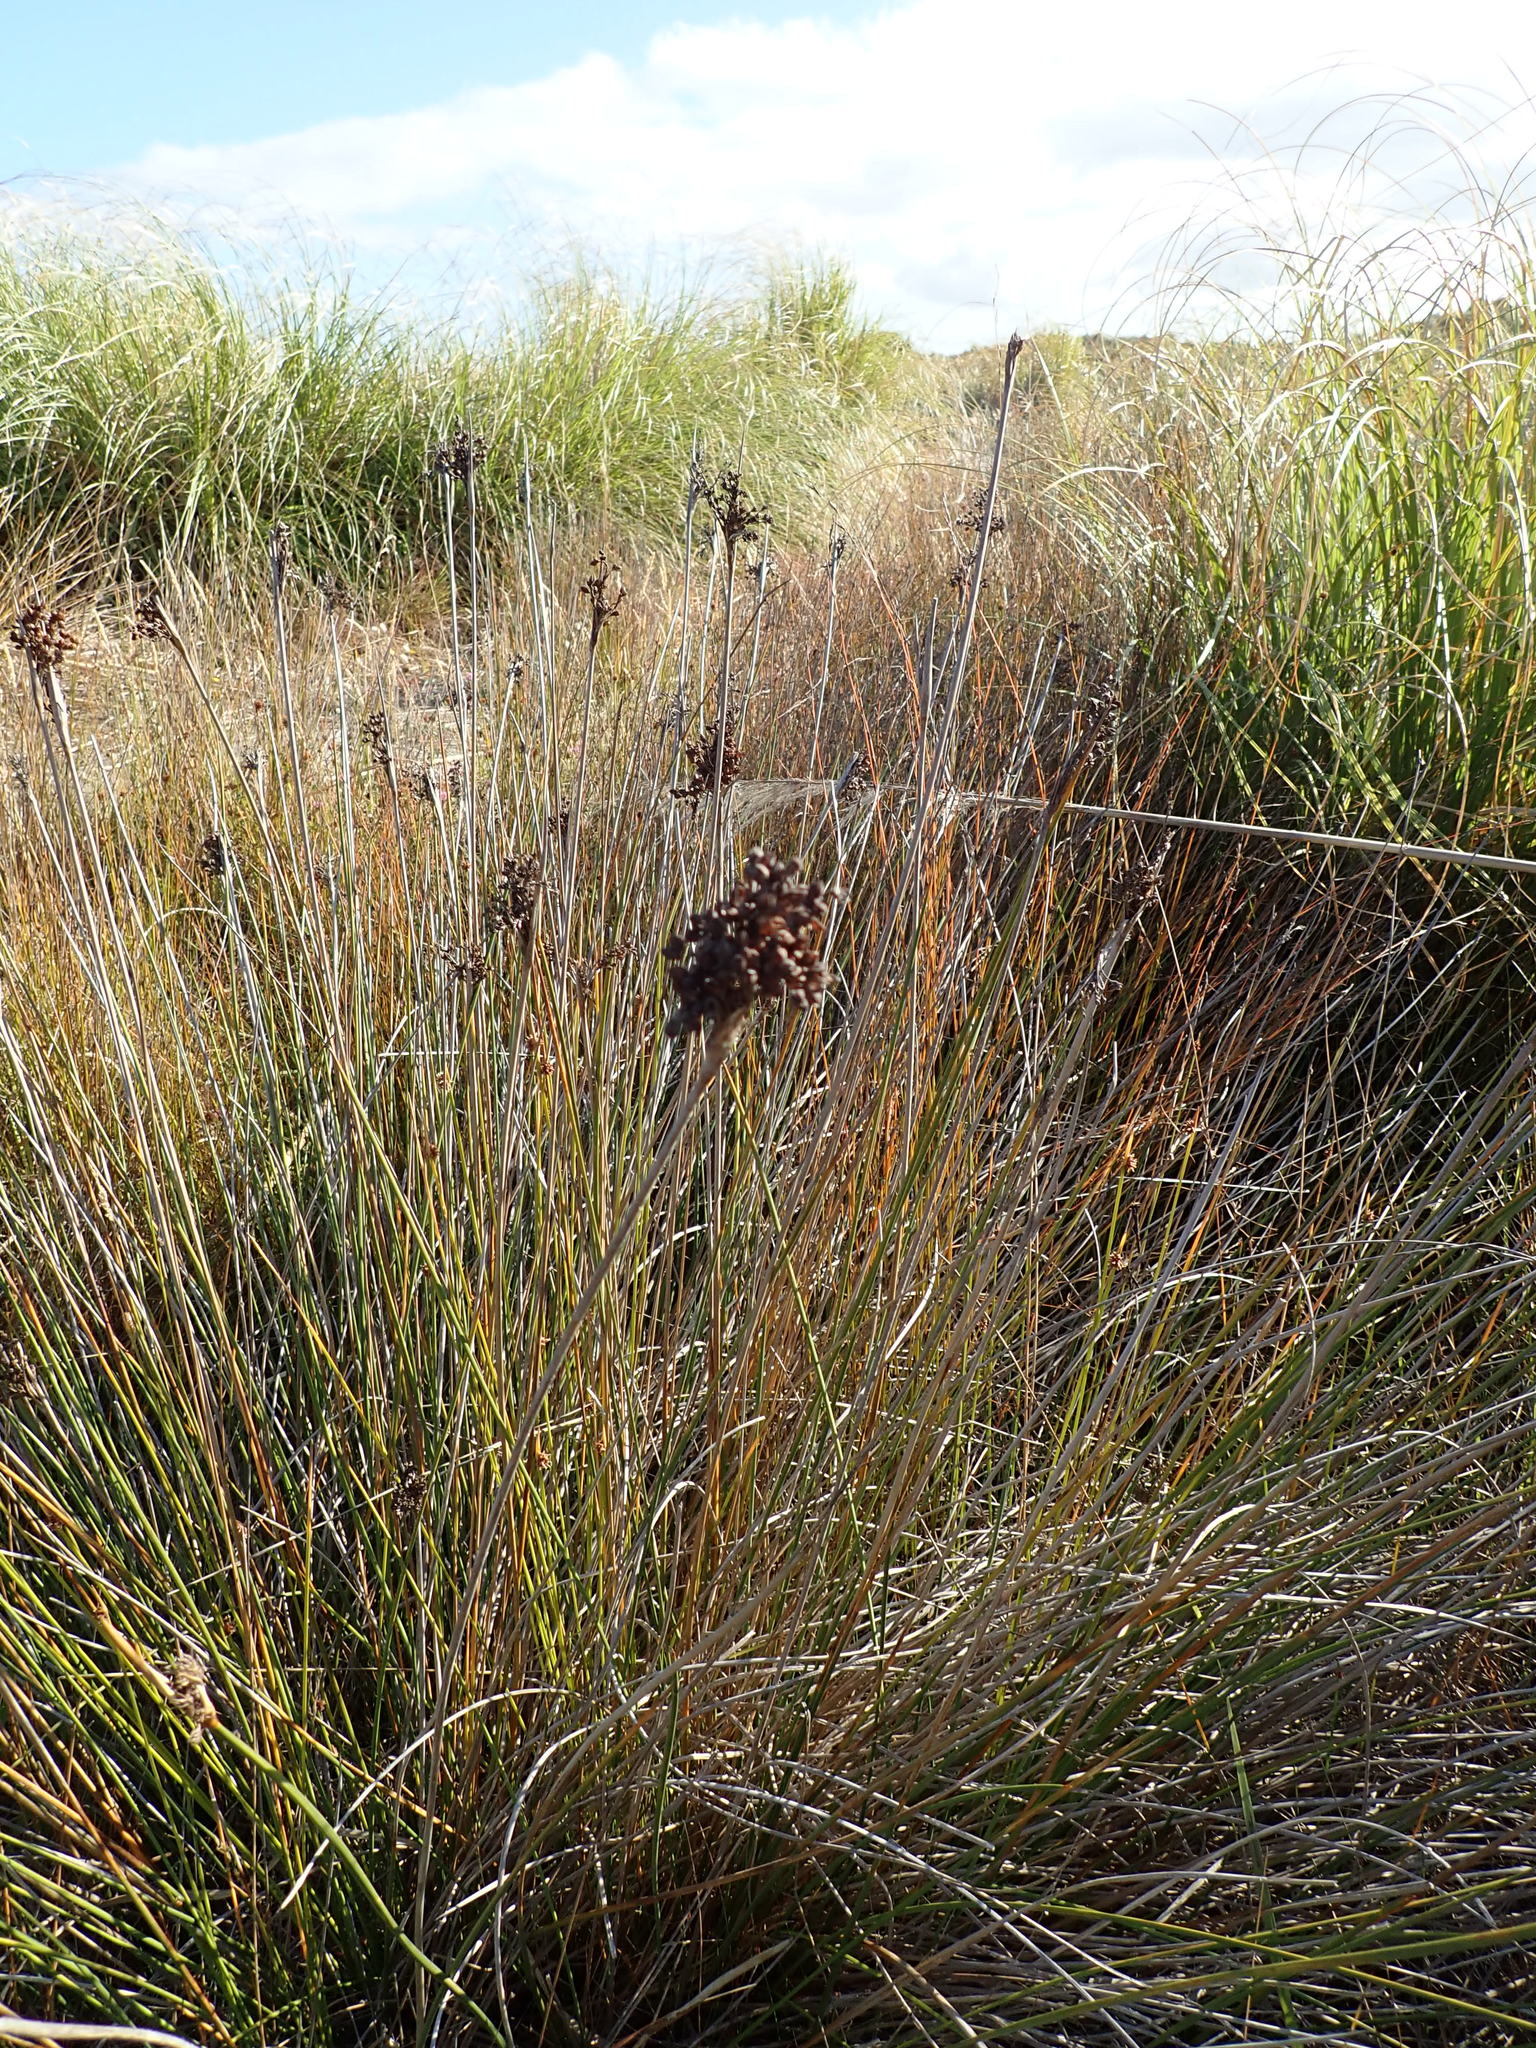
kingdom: Plantae
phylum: Tracheophyta
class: Liliopsida
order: Poales
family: Juncaceae
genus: Juncus
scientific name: Juncus acutus
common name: Sharp rush
